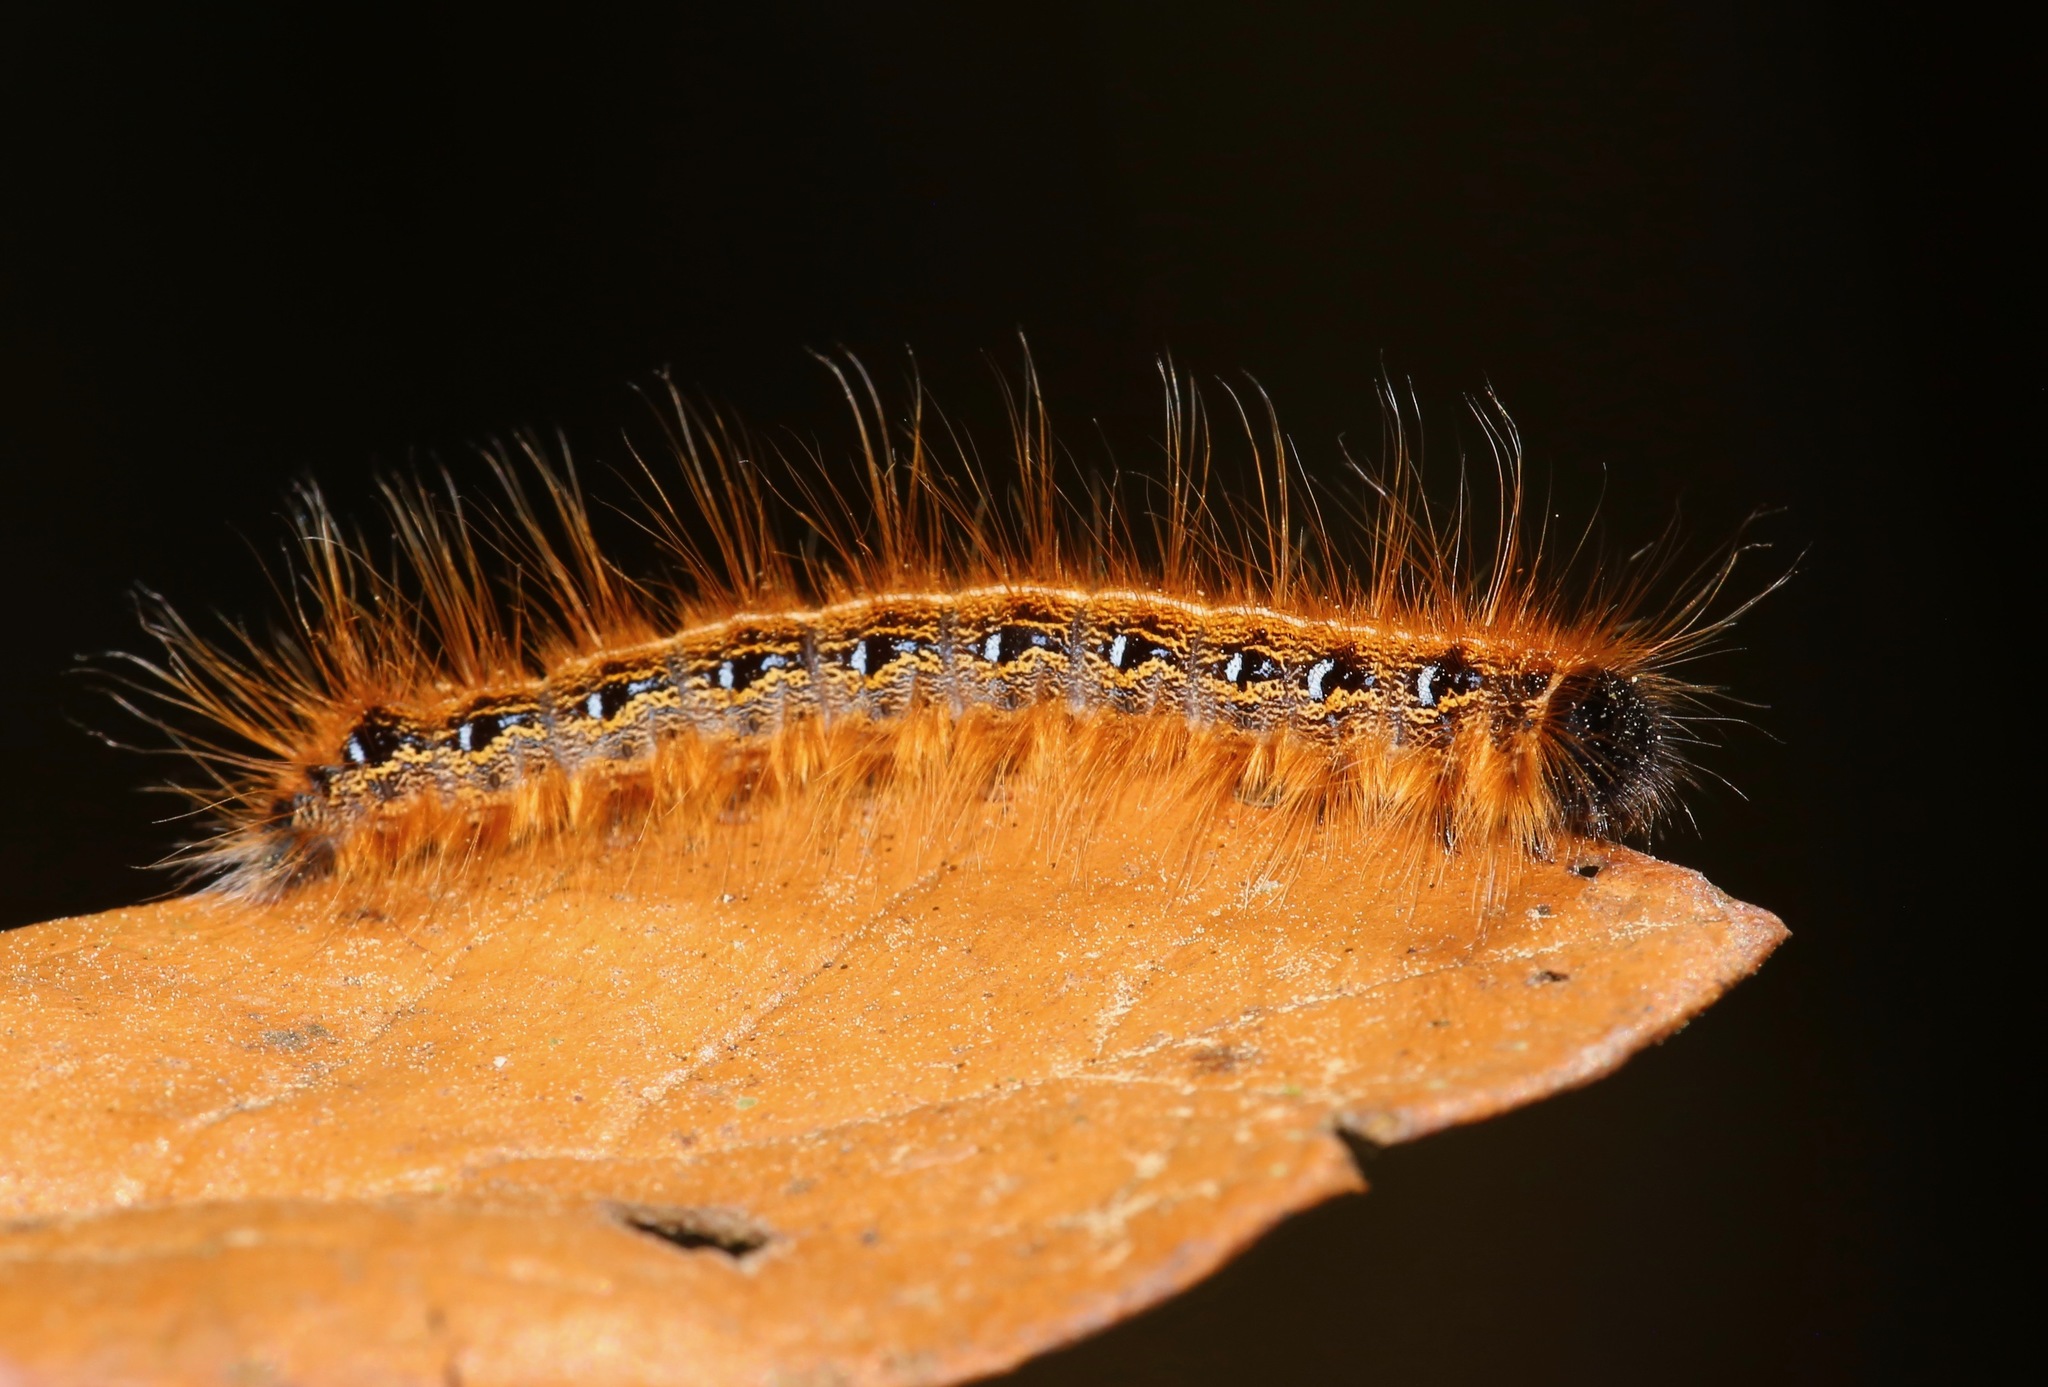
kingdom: Animalia
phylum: Arthropoda
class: Insecta
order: Lepidoptera
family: Lasiocampidae
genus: Malacosoma
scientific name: Malacosoma americana
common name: Eastern tent caterpillar moth
